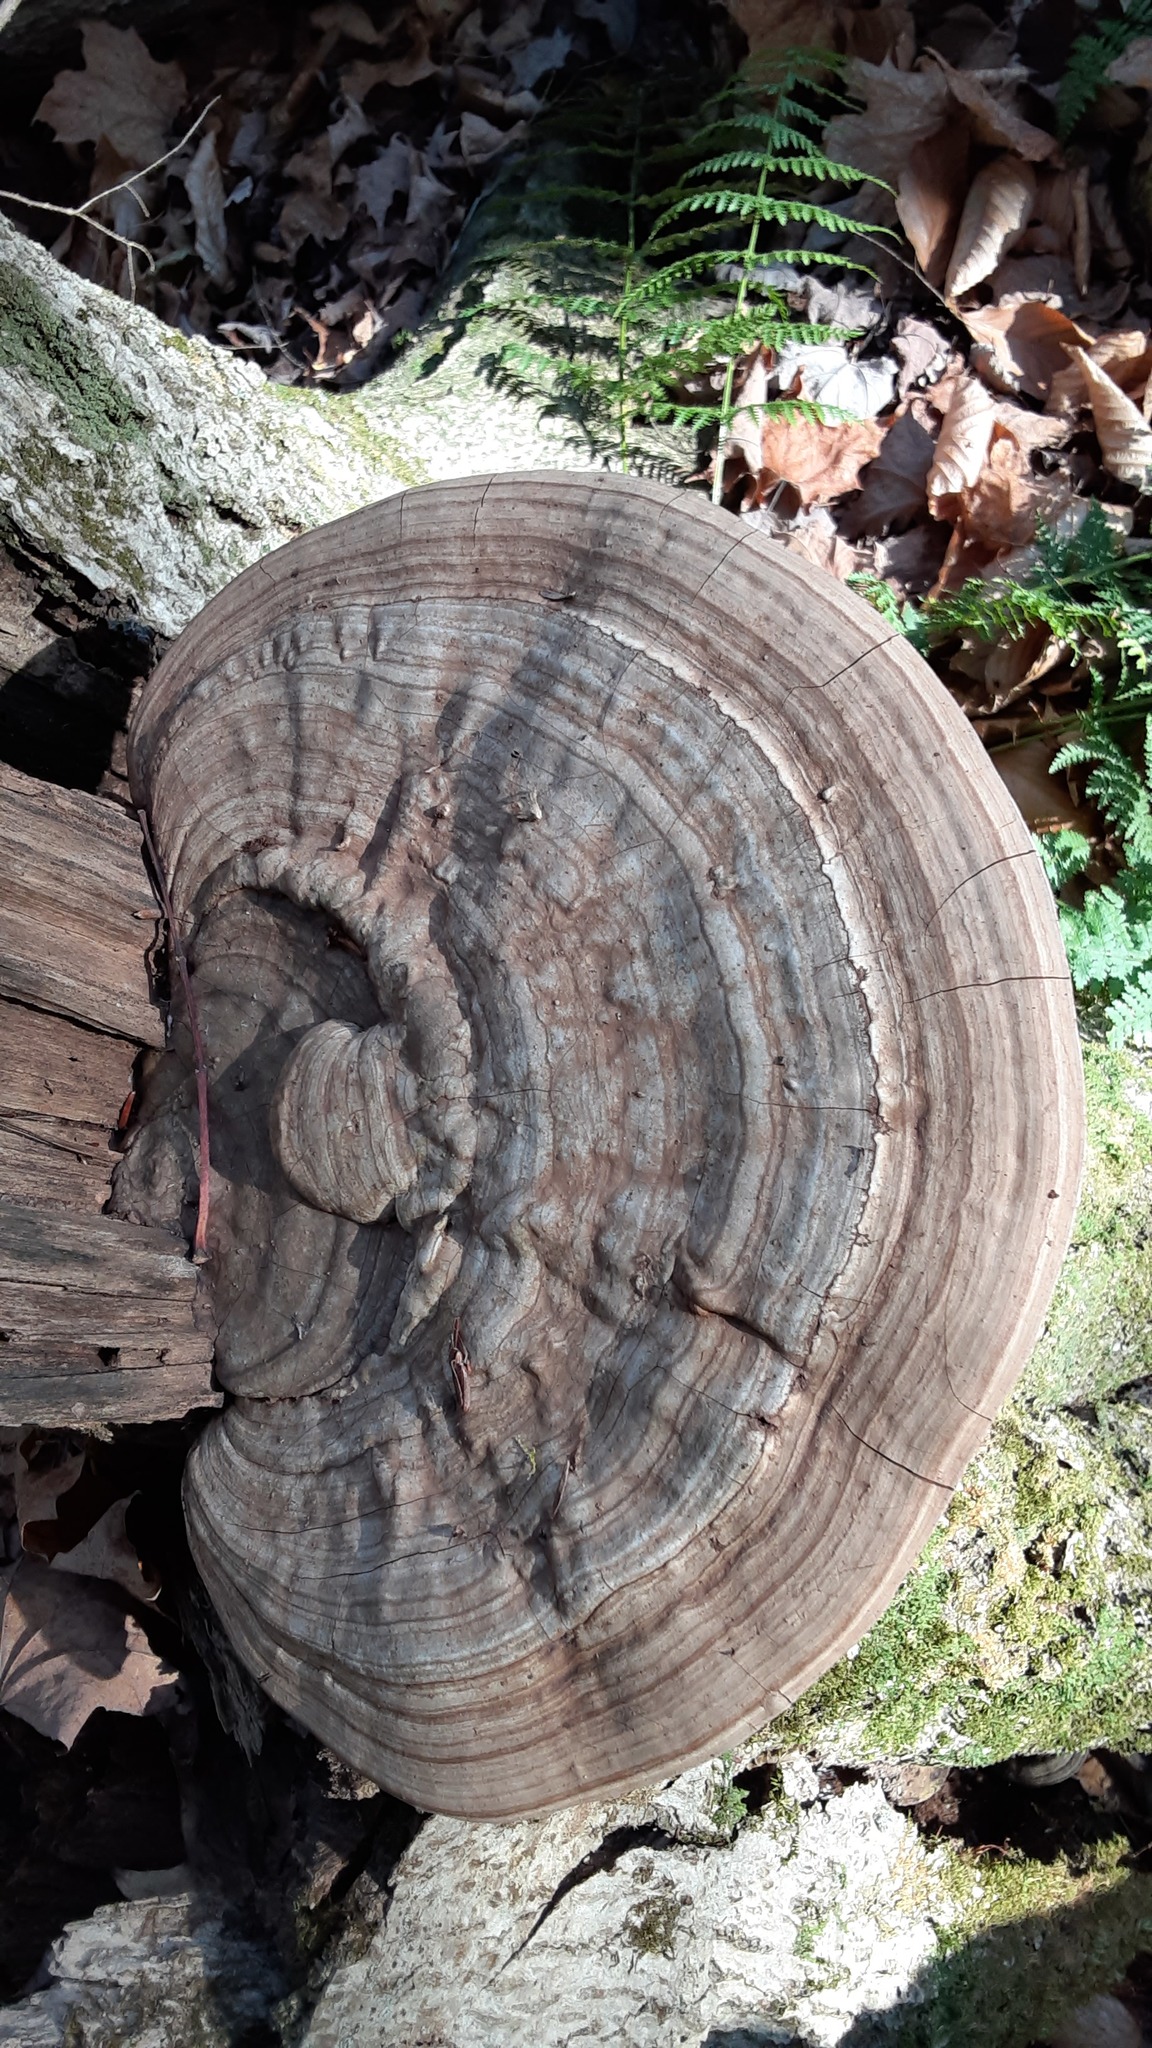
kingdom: Fungi
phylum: Basidiomycota
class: Agaricomycetes
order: Polyporales
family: Polyporaceae
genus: Ganoderma
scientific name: Ganoderma applanatum
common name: Artist's bracket
